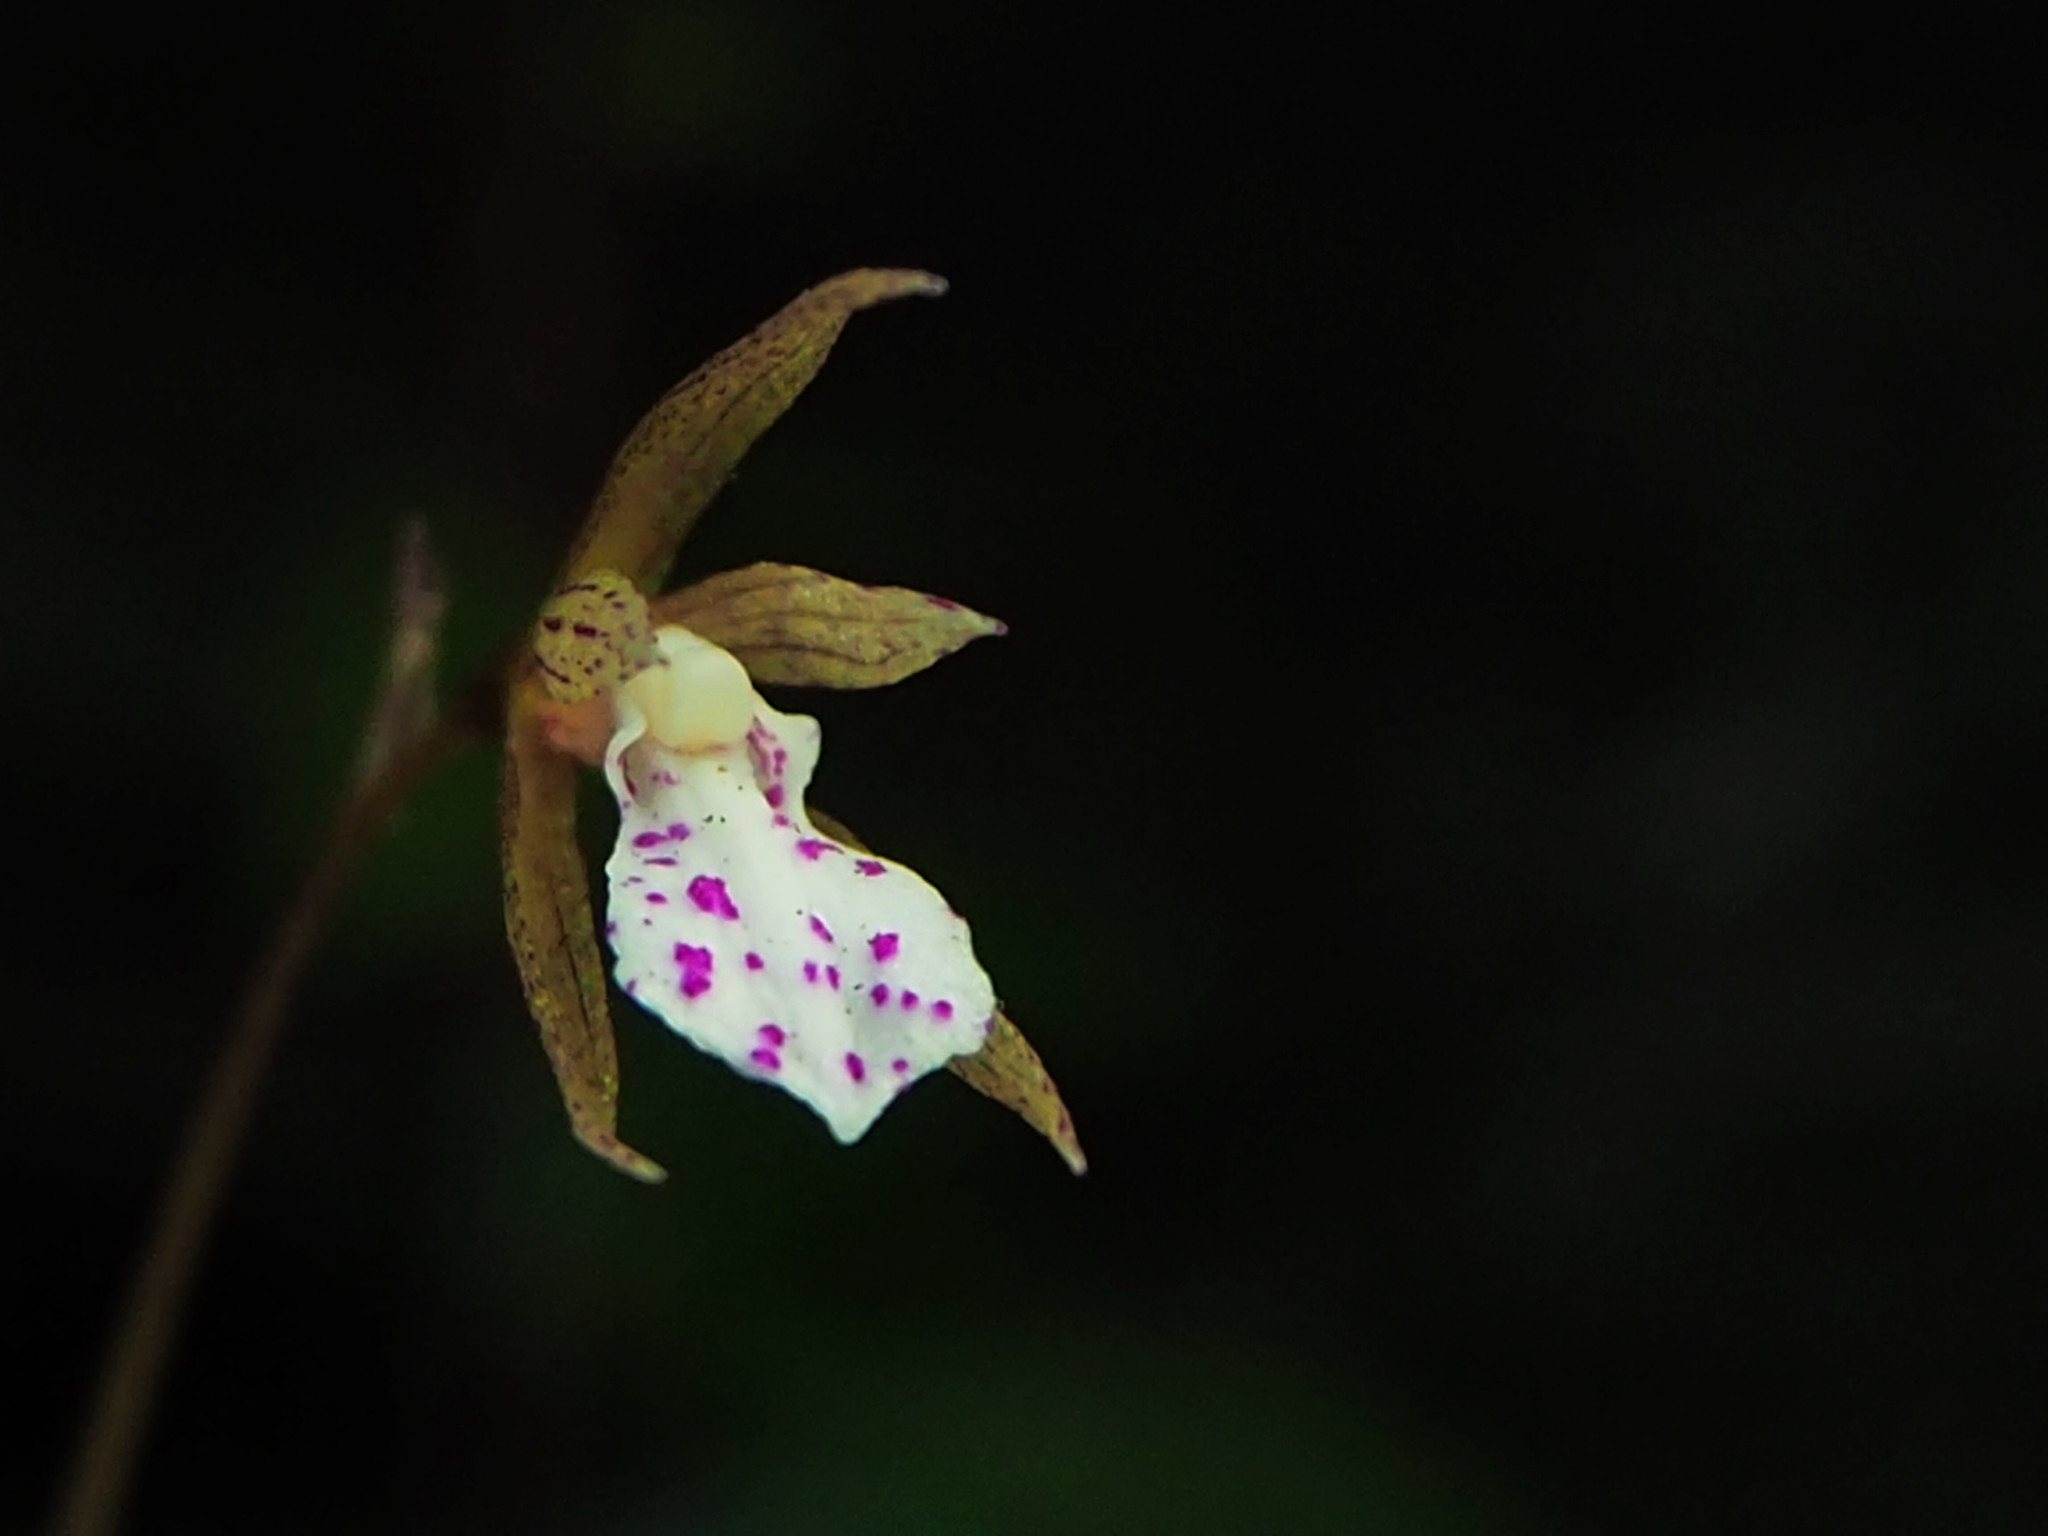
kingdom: Plantae
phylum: Tracheophyta
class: Liliopsida
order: Asparagales
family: Orchidaceae
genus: Nervilia
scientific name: Nervilia nipponica
